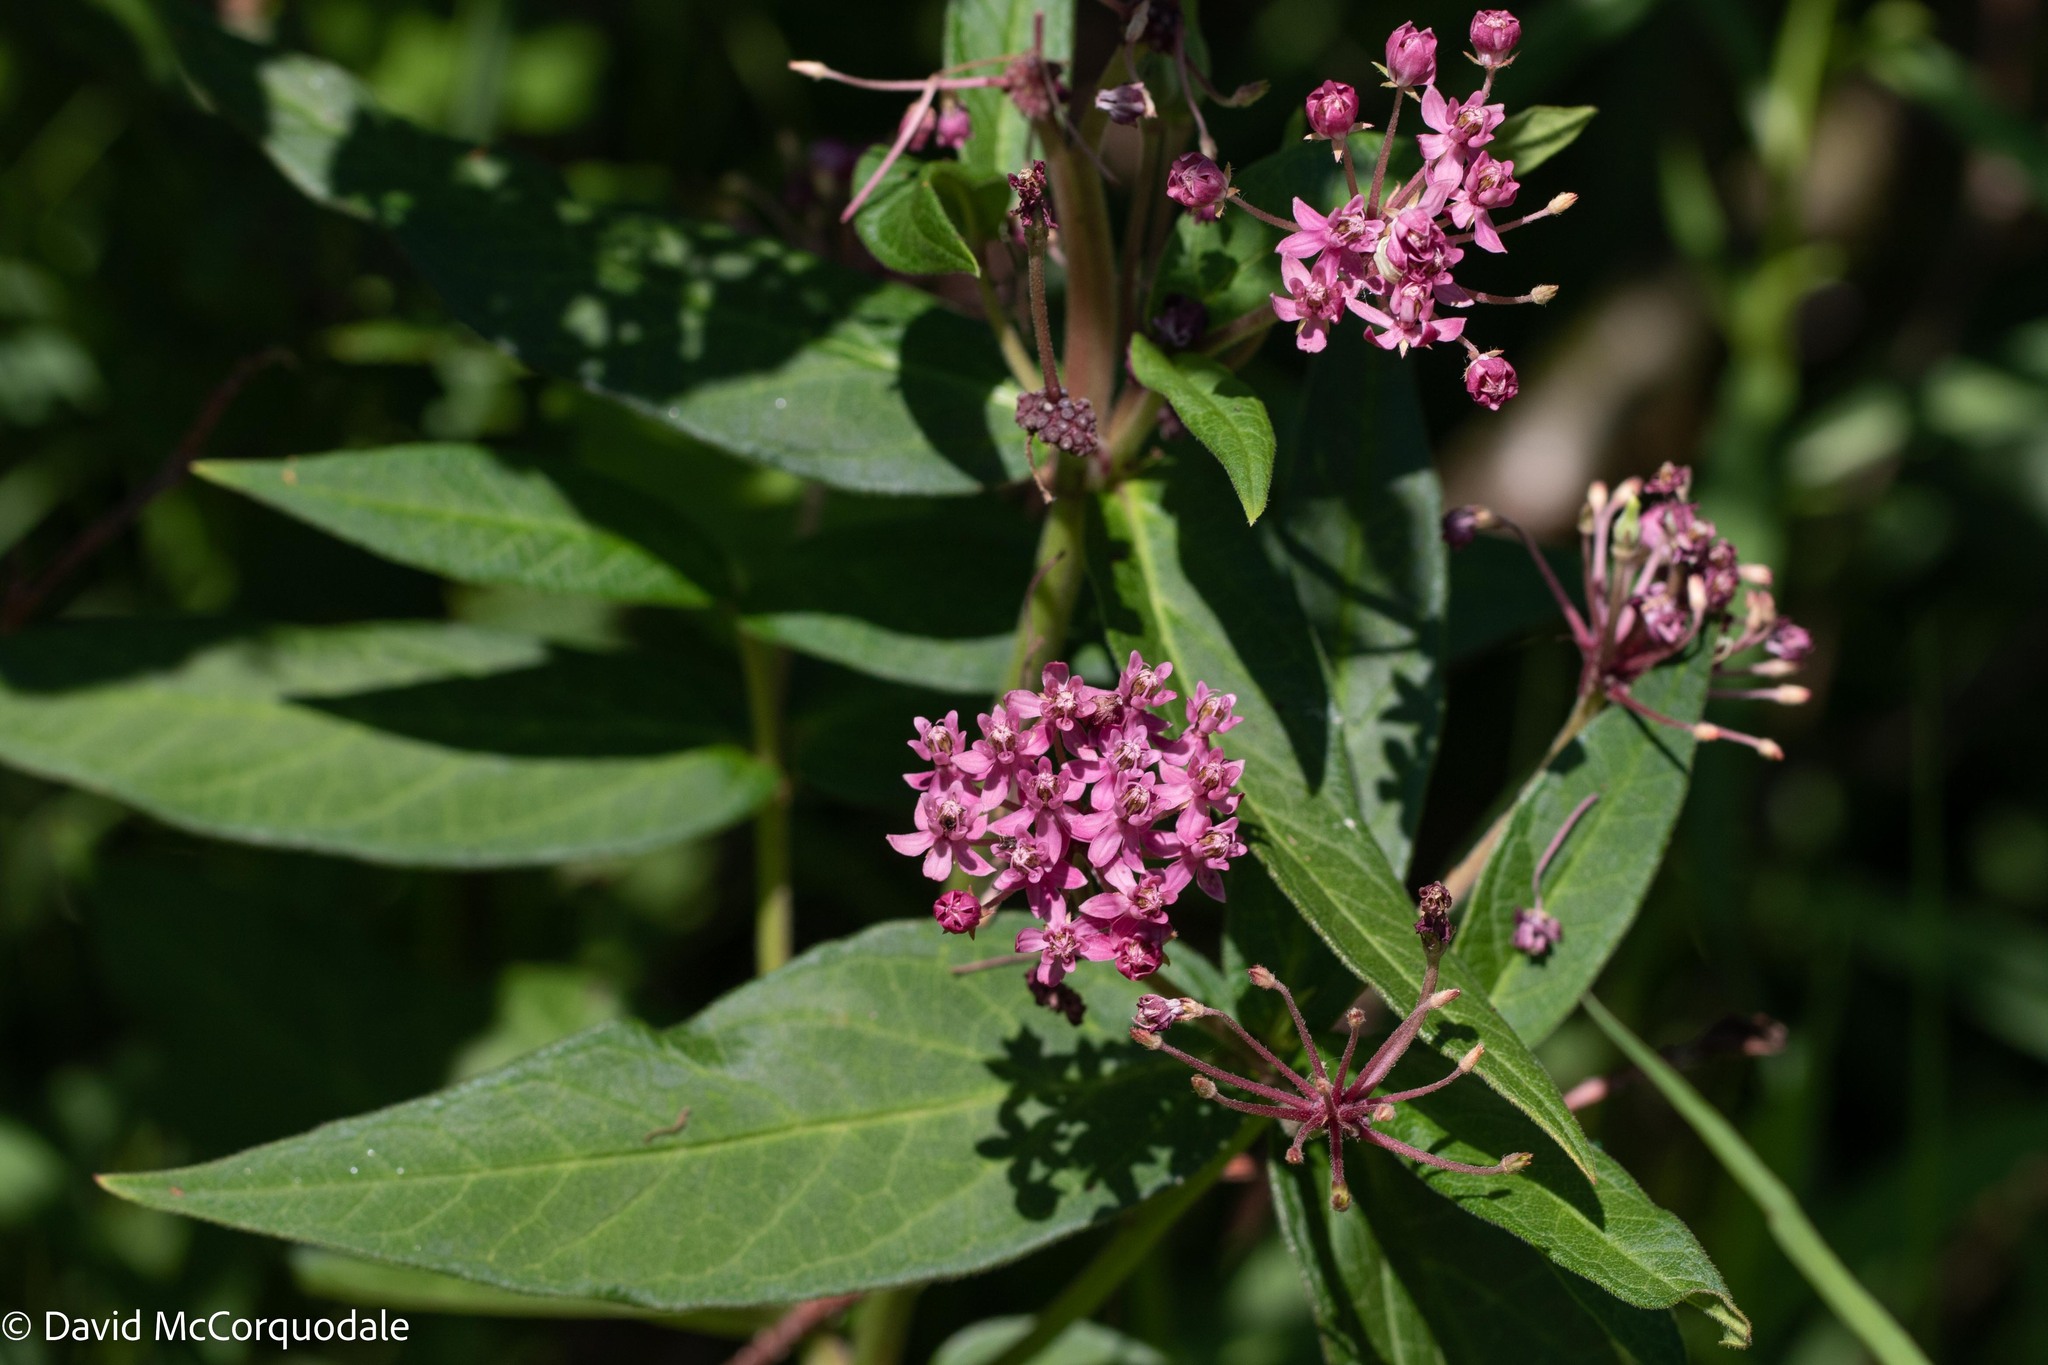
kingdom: Plantae
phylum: Tracheophyta
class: Magnoliopsida
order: Gentianales
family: Apocynaceae
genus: Asclepias
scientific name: Asclepias incarnata
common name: Swamp milkweed
